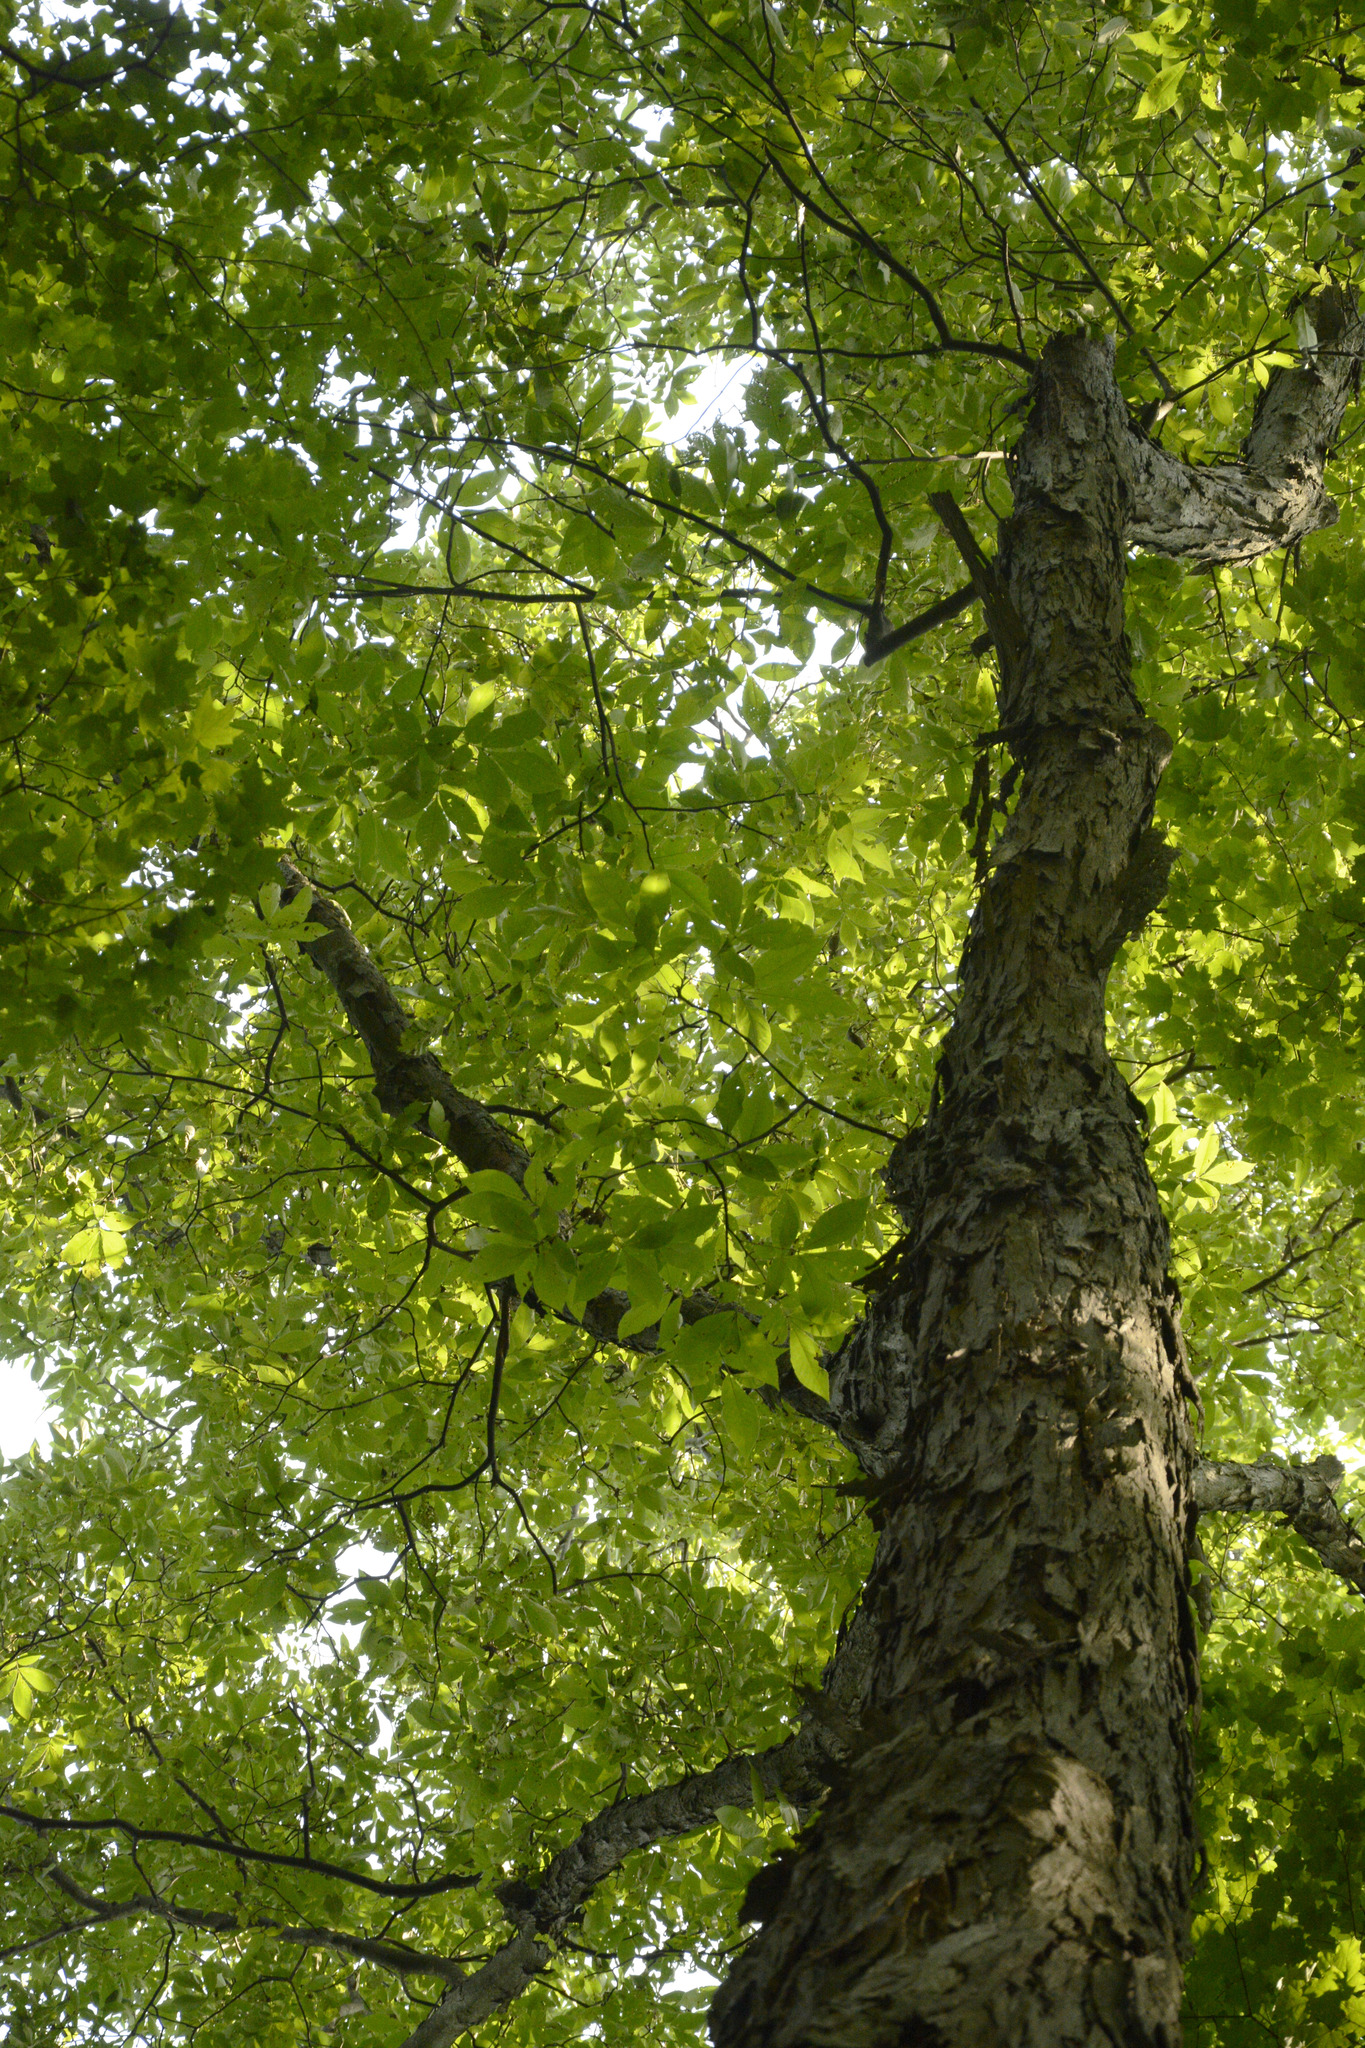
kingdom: Plantae
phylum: Tracheophyta
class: Magnoliopsida
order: Fagales
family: Juglandaceae
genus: Carya
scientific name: Carya ovata
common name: Shagbark hickory
